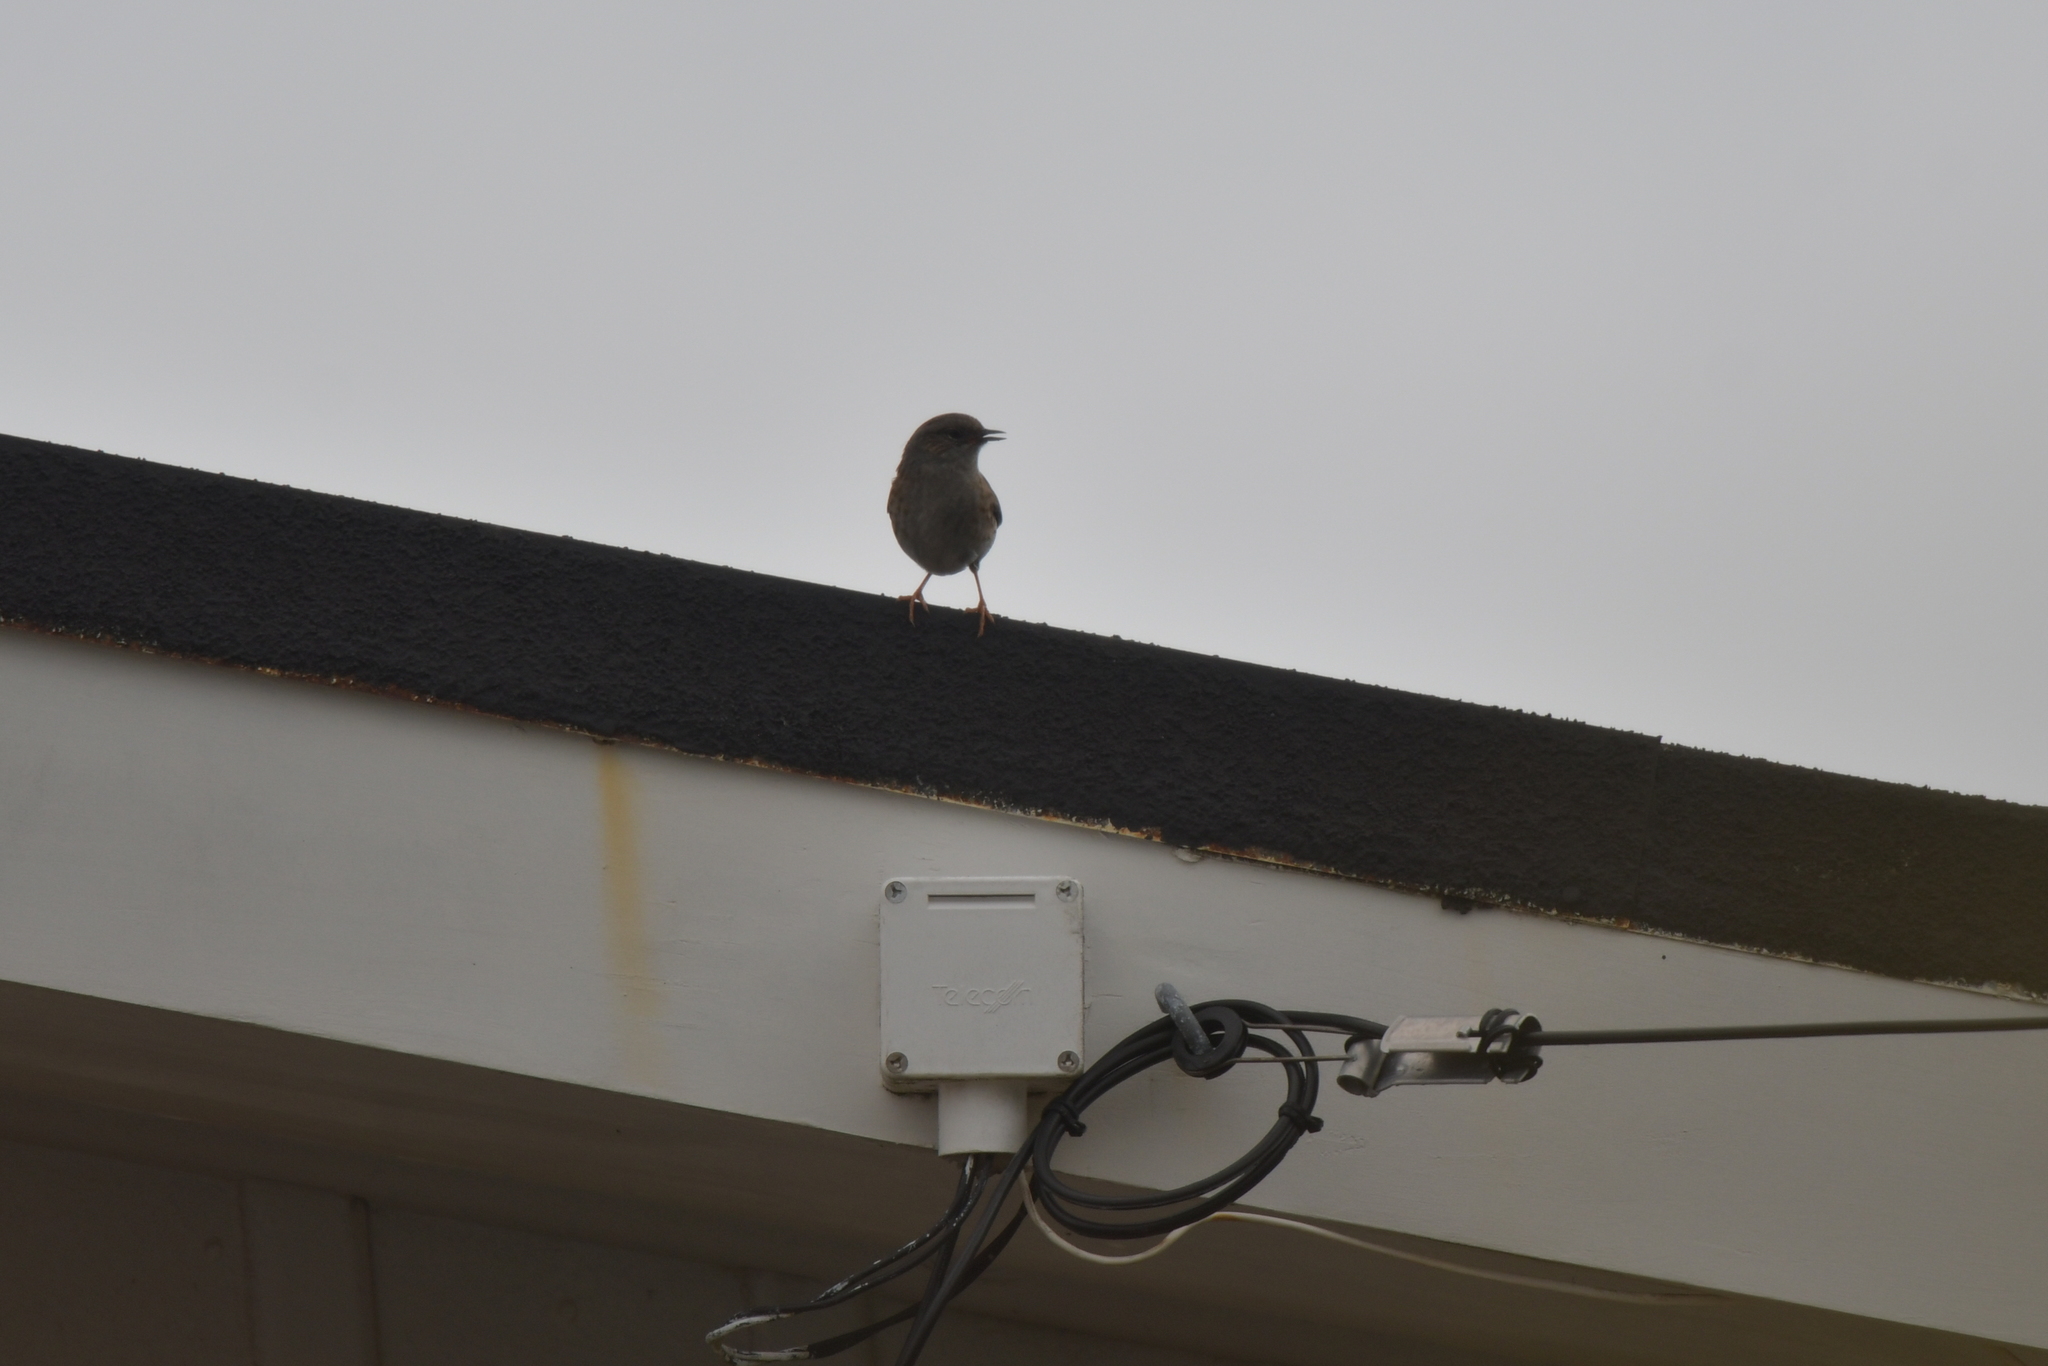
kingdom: Animalia
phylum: Chordata
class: Aves
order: Passeriformes
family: Prunellidae
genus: Prunella
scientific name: Prunella modularis
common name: Dunnock
